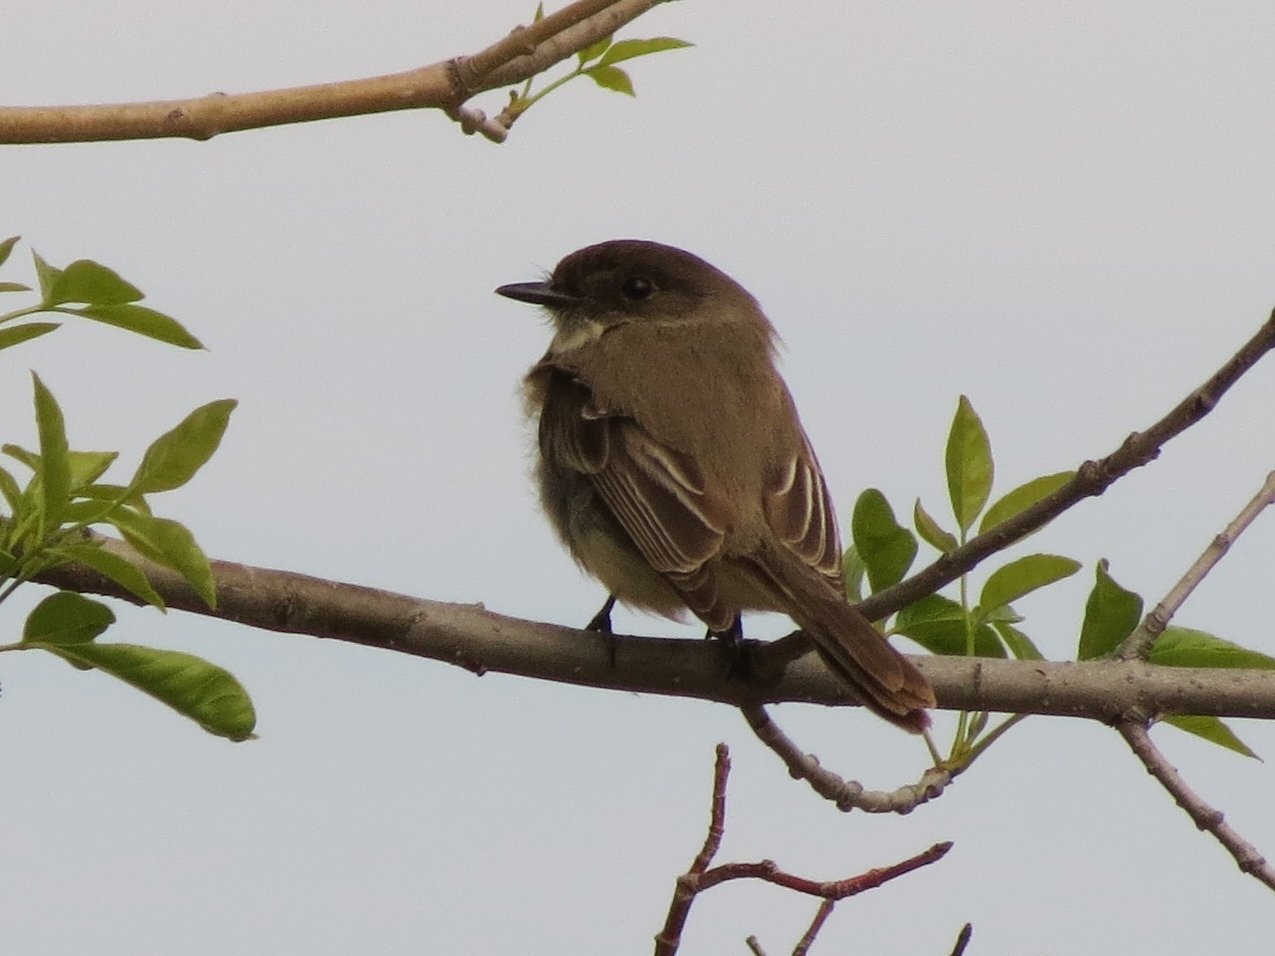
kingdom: Animalia
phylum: Chordata
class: Aves
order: Passeriformes
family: Tyrannidae
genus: Sayornis
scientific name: Sayornis phoebe
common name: Eastern phoebe
